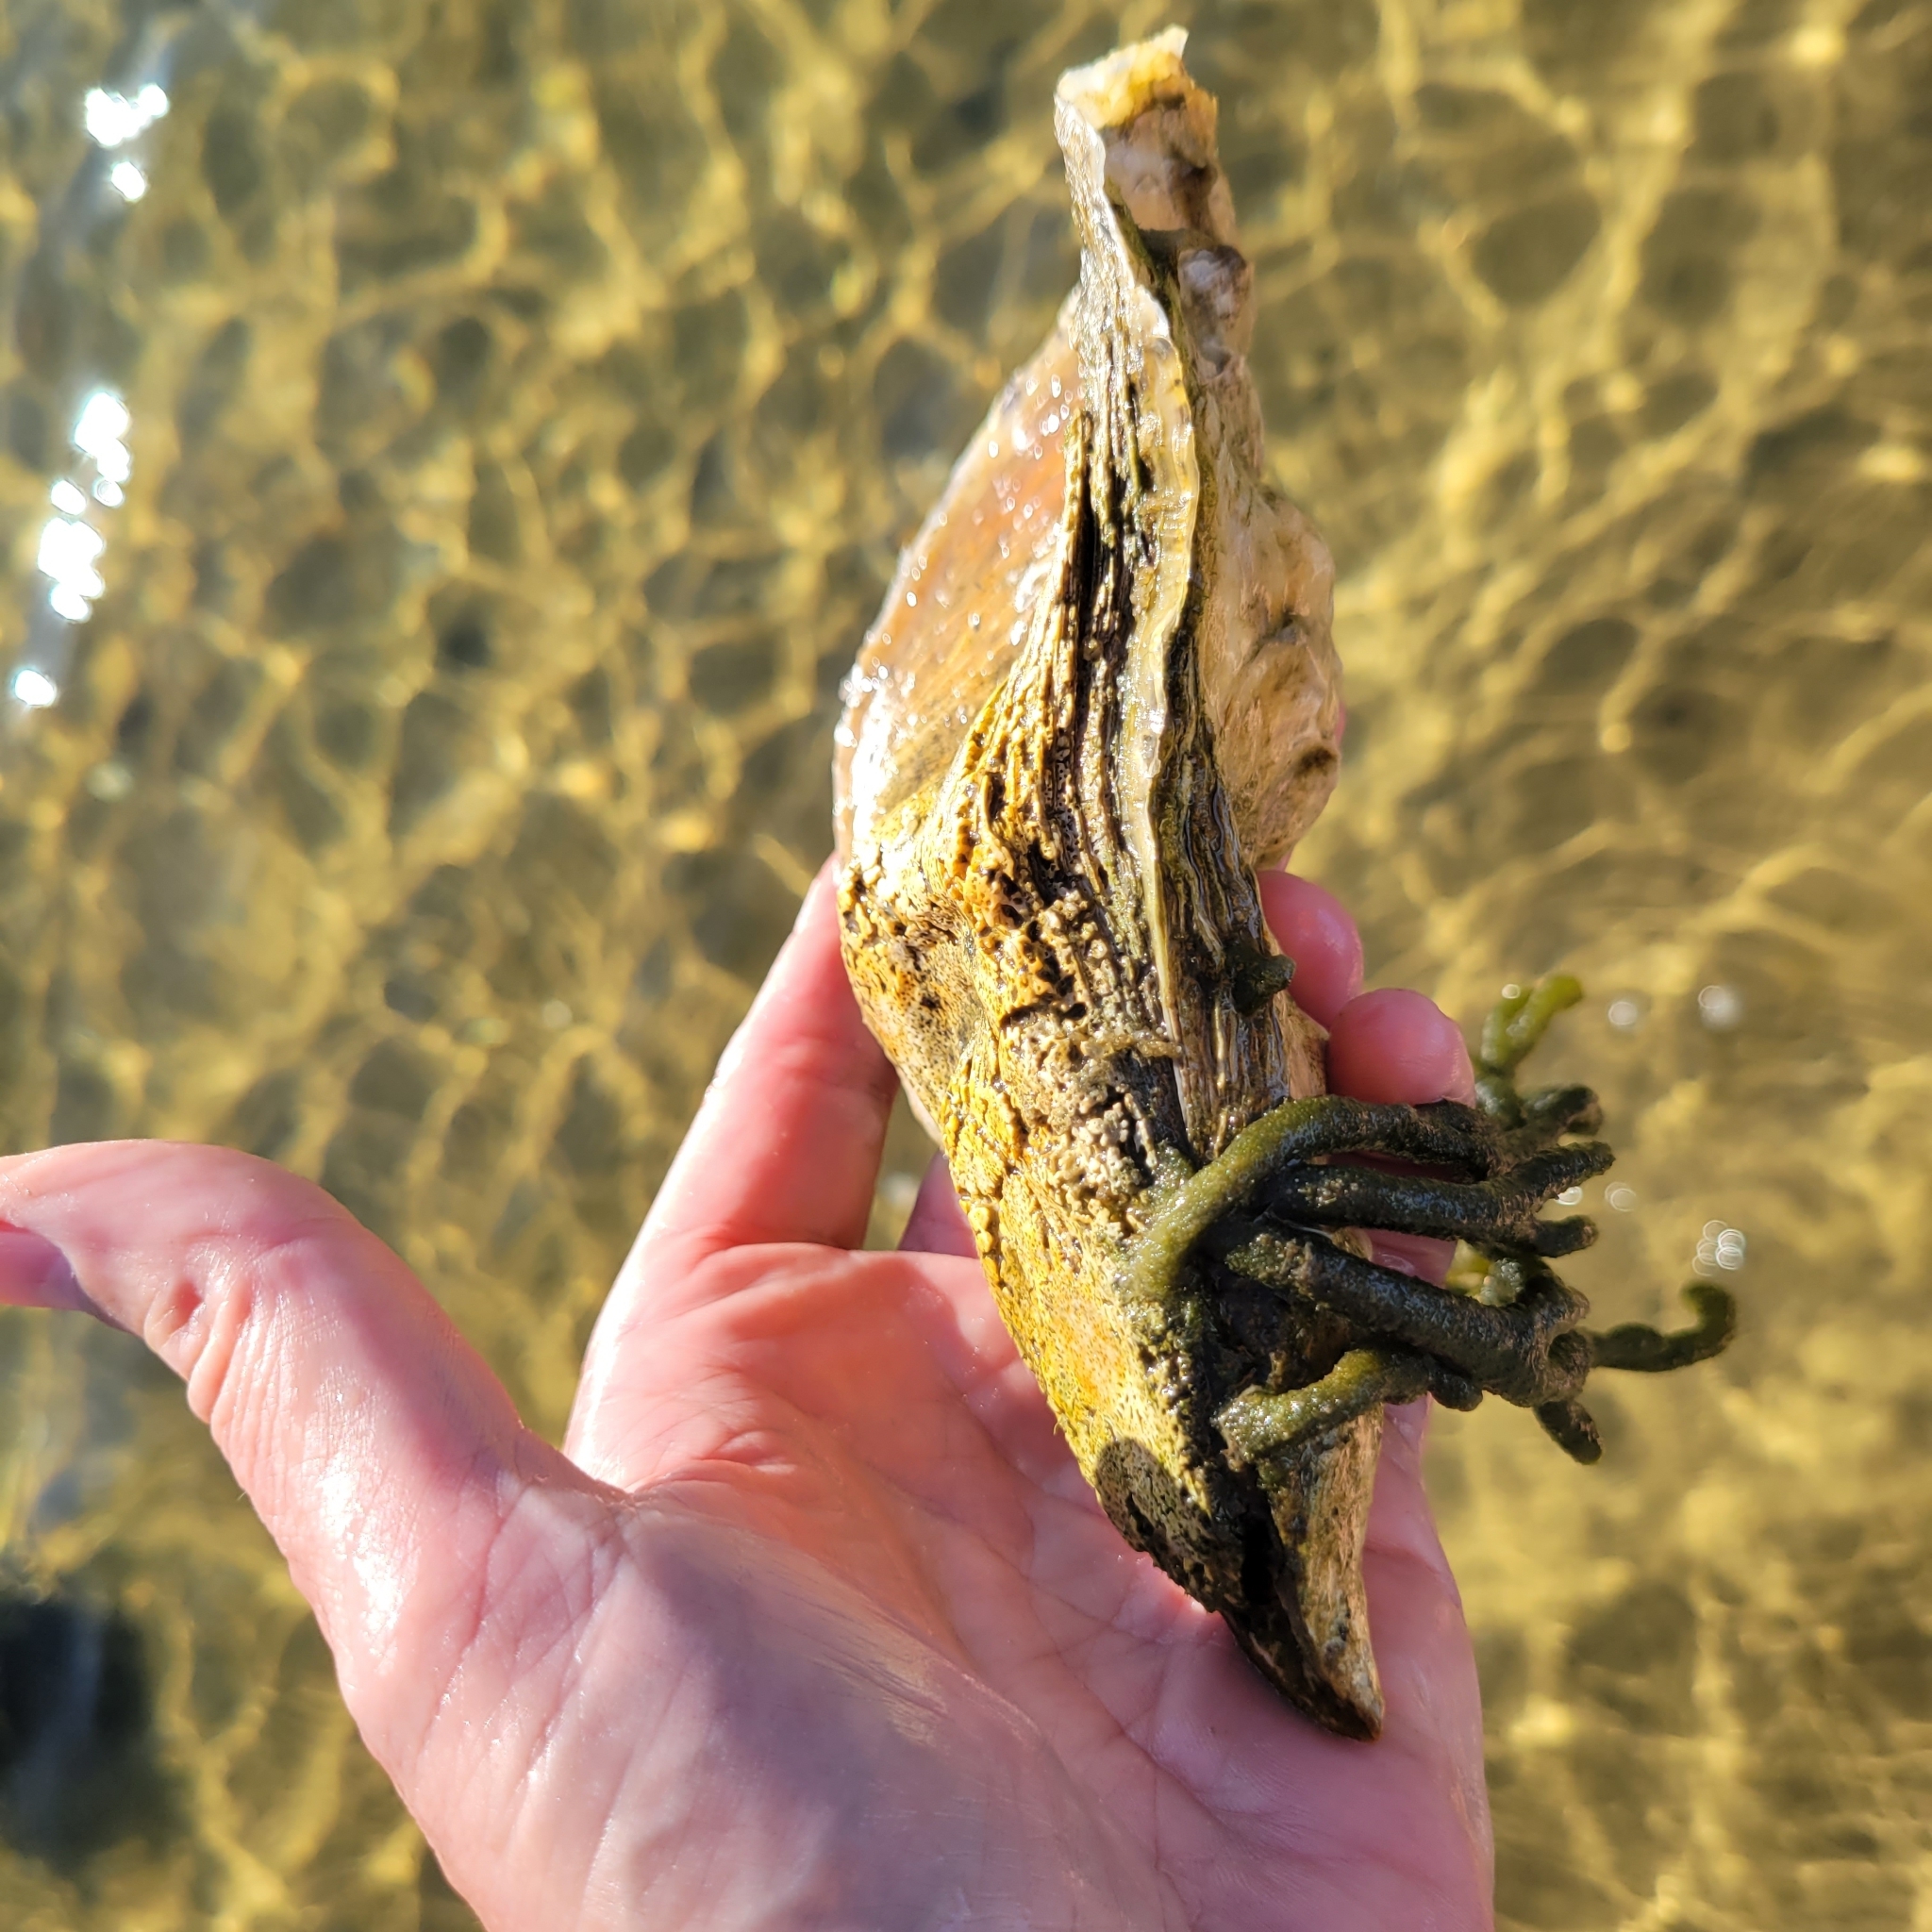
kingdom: Animalia
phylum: Mollusca
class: Bivalvia
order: Ostreida
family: Ostreidae
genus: Crassostrea
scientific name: Crassostrea virginica
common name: American oyster
